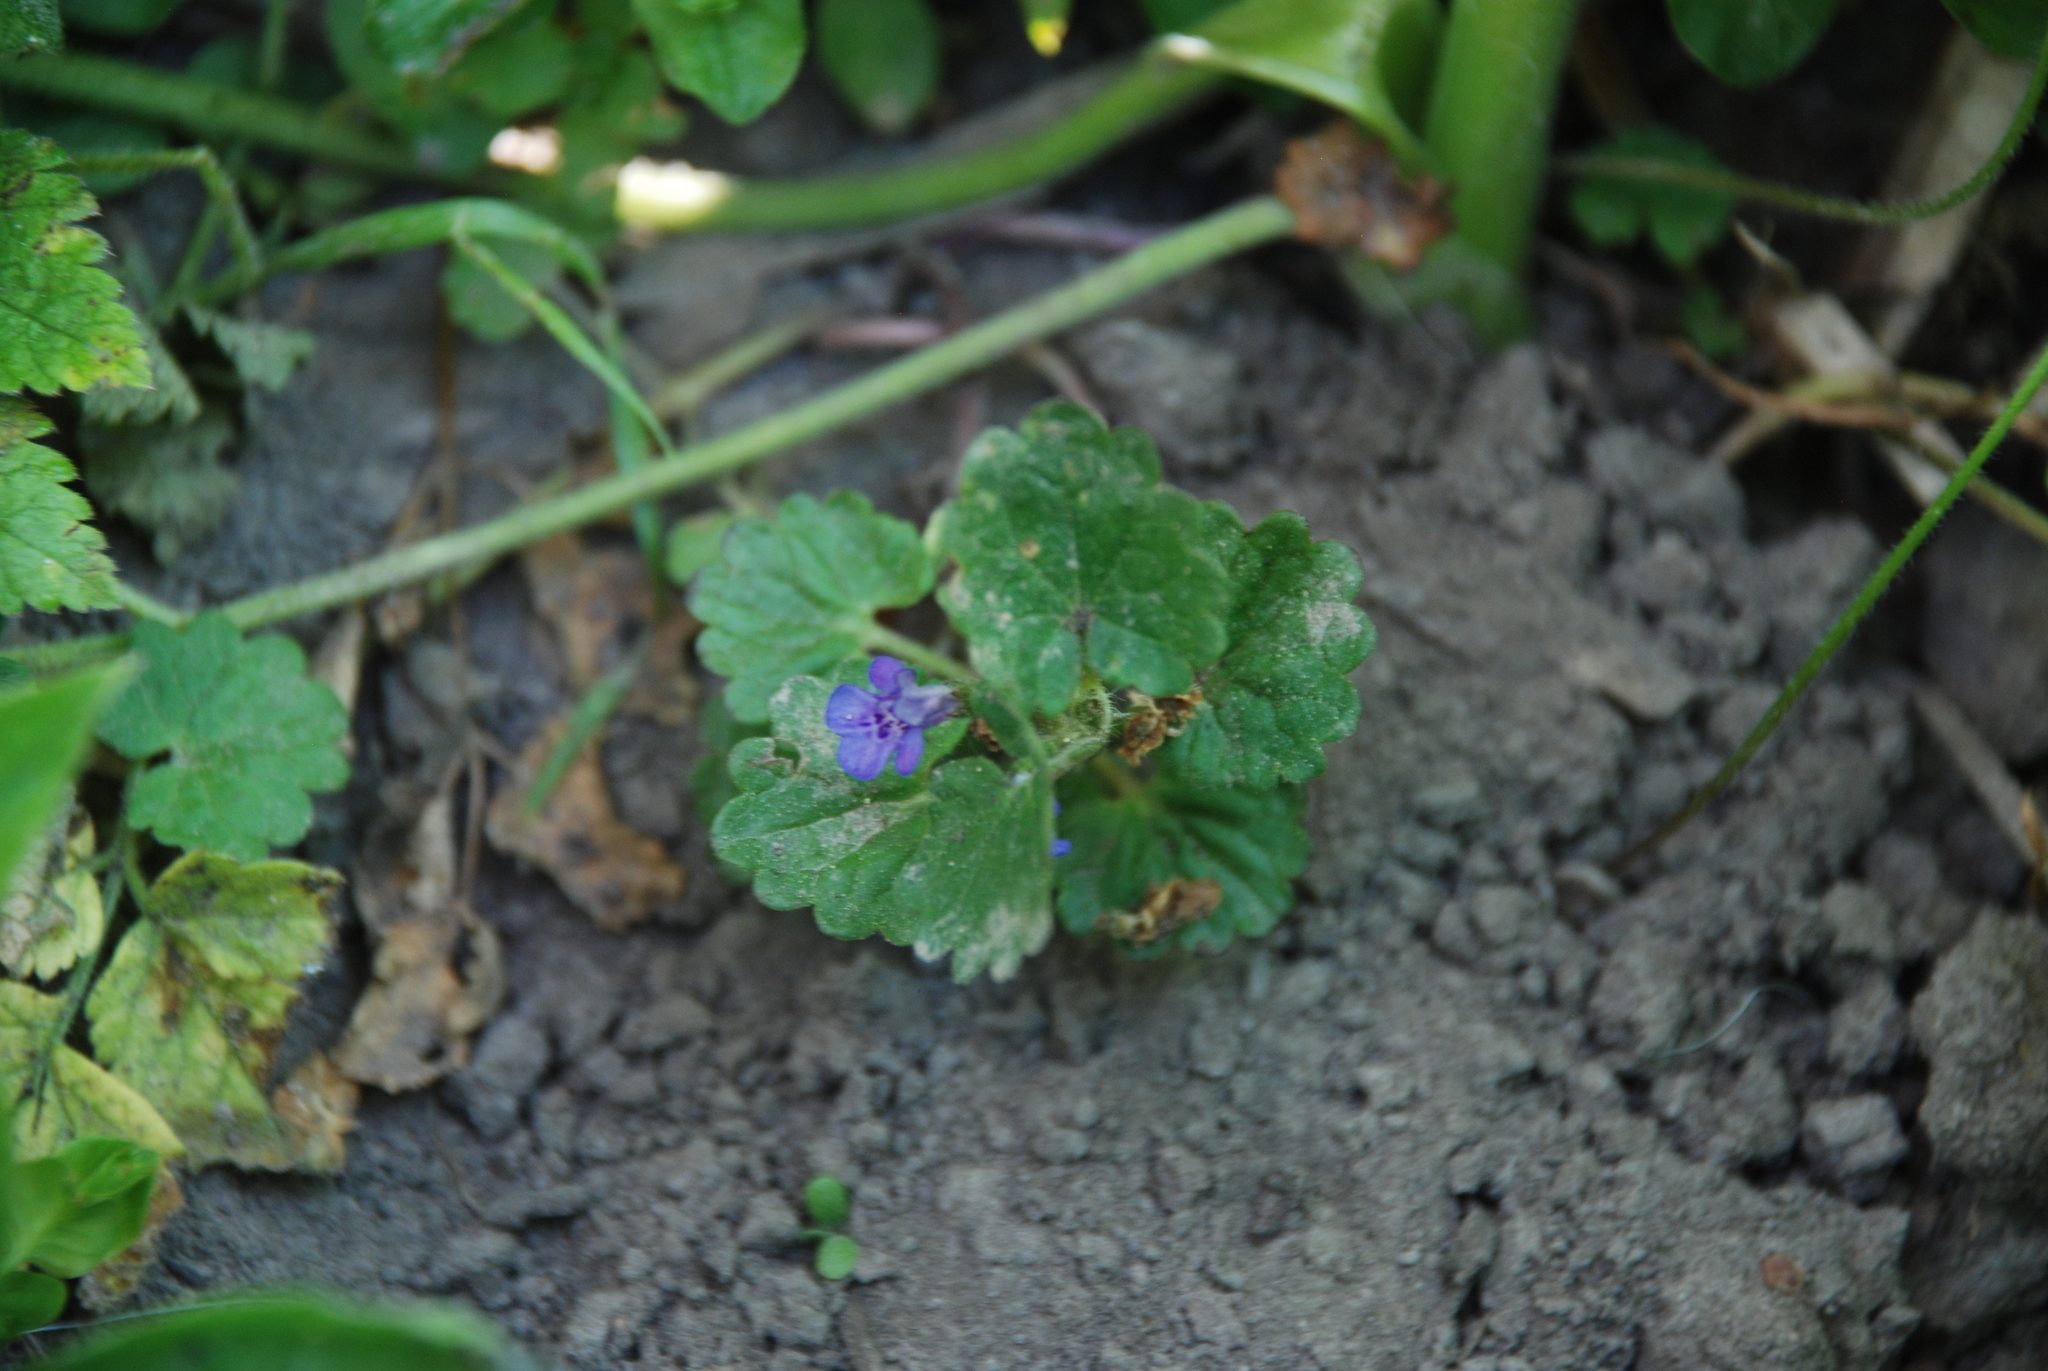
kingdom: Plantae
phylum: Tracheophyta
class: Magnoliopsida
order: Lamiales
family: Lamiaceae
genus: Glechoma
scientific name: Glechoma hederacea
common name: Ground ivy
